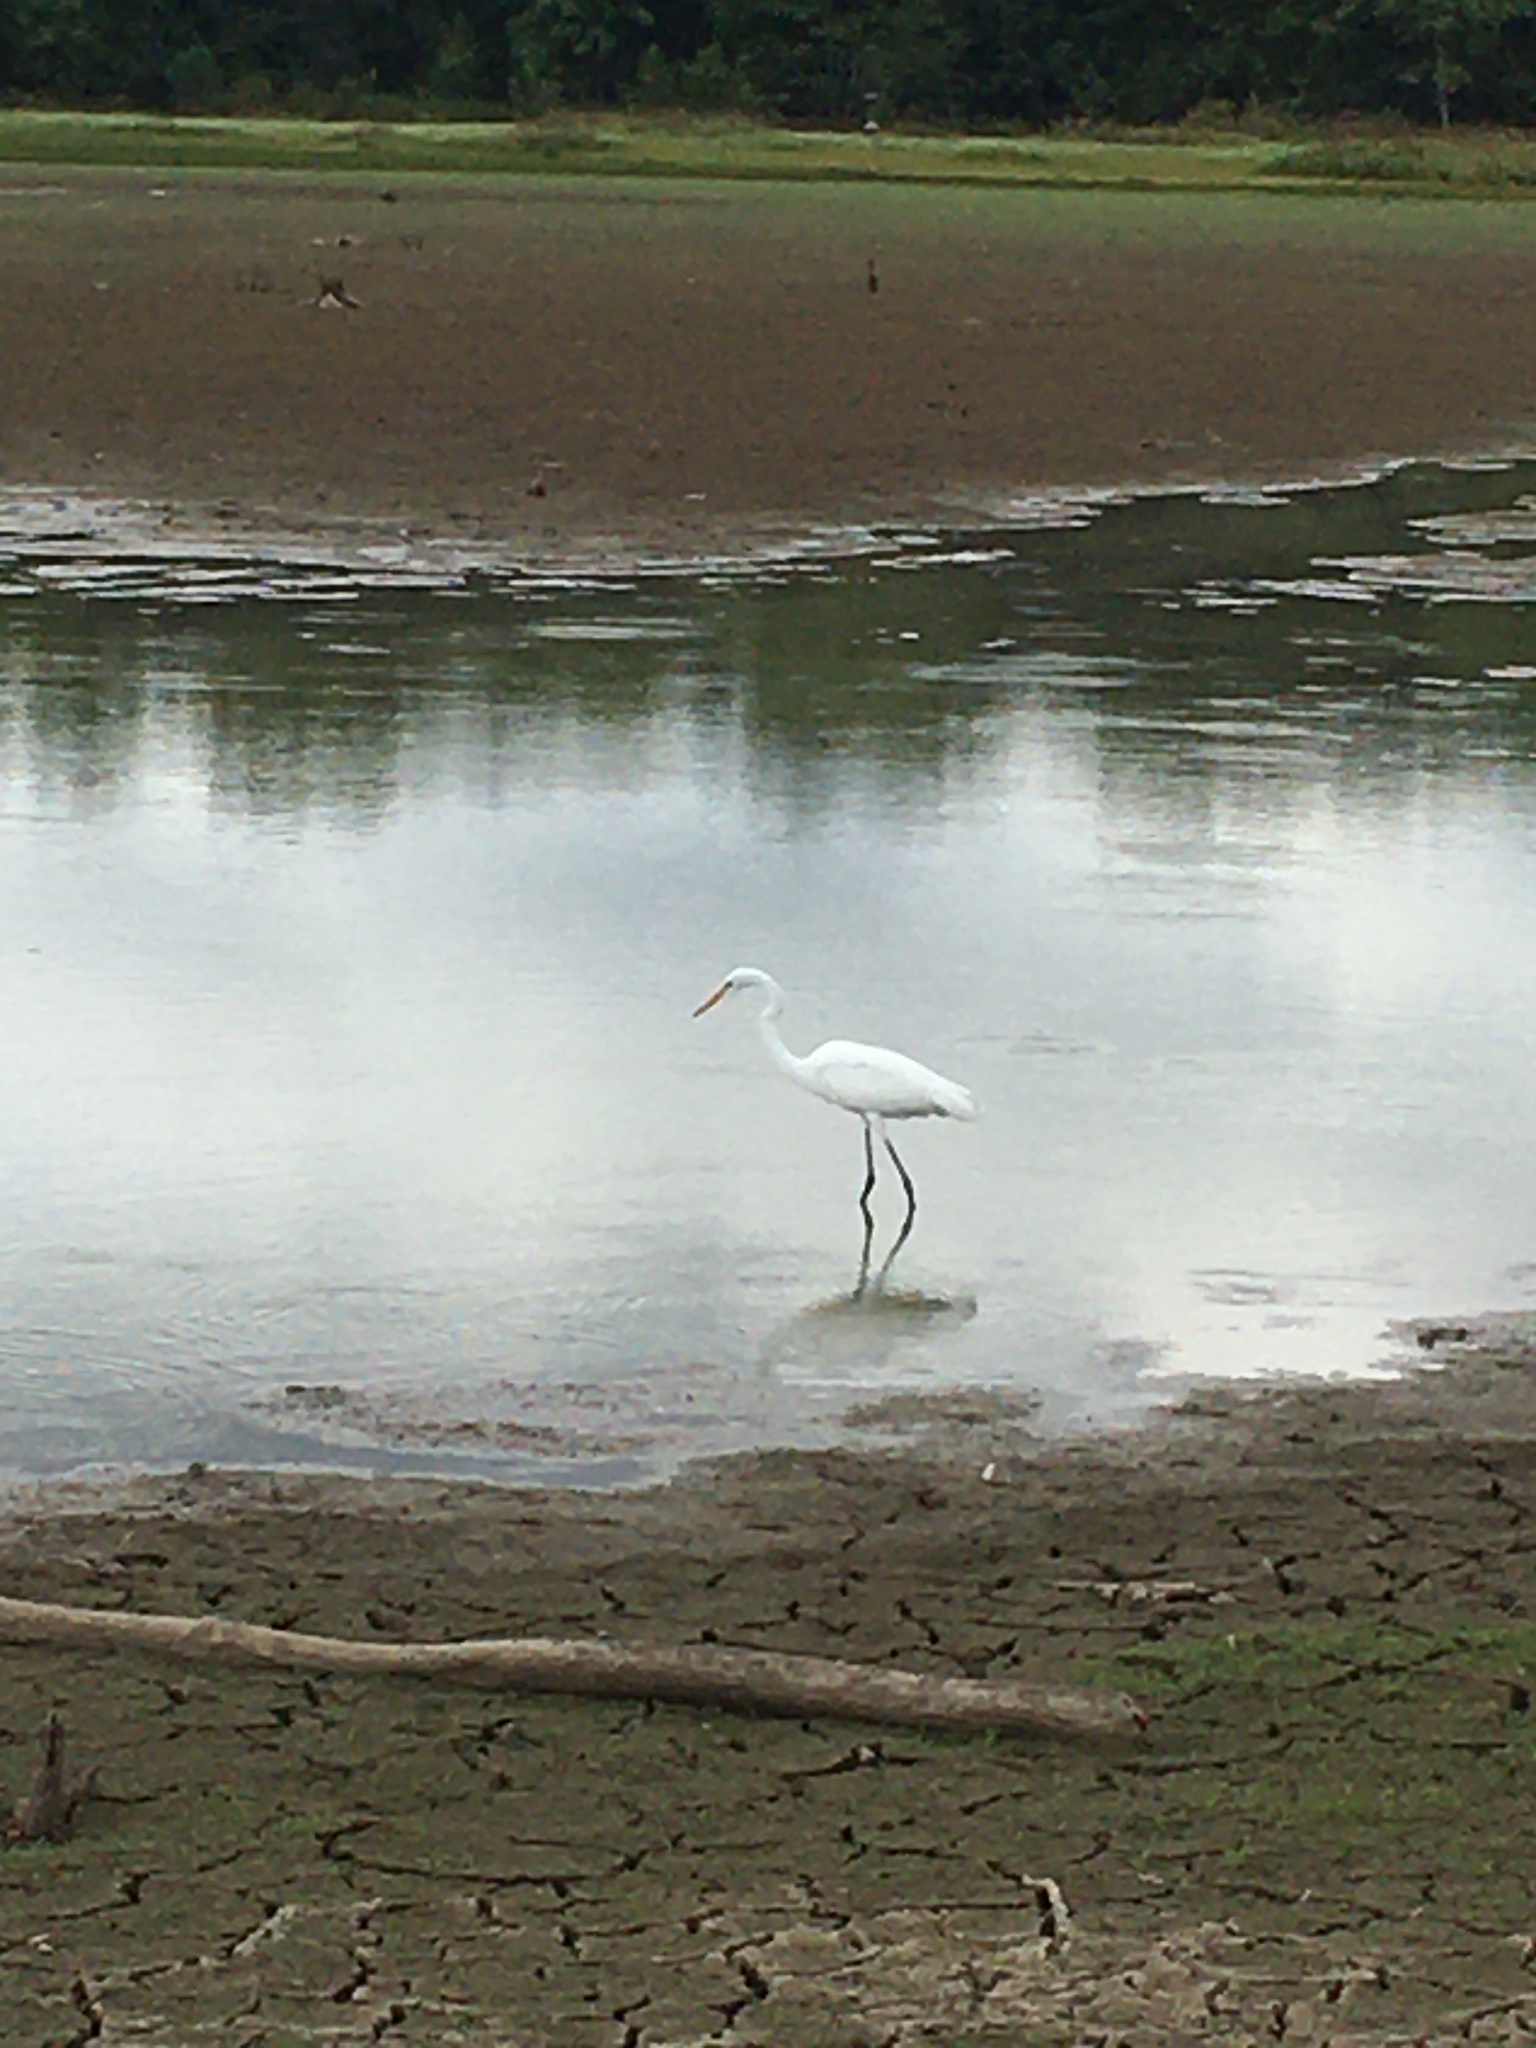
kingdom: Animalia
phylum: Chordata
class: Aves
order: Pelecaniformes
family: Ardeidae
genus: Ardea
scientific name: Ardea alba
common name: Great egret
